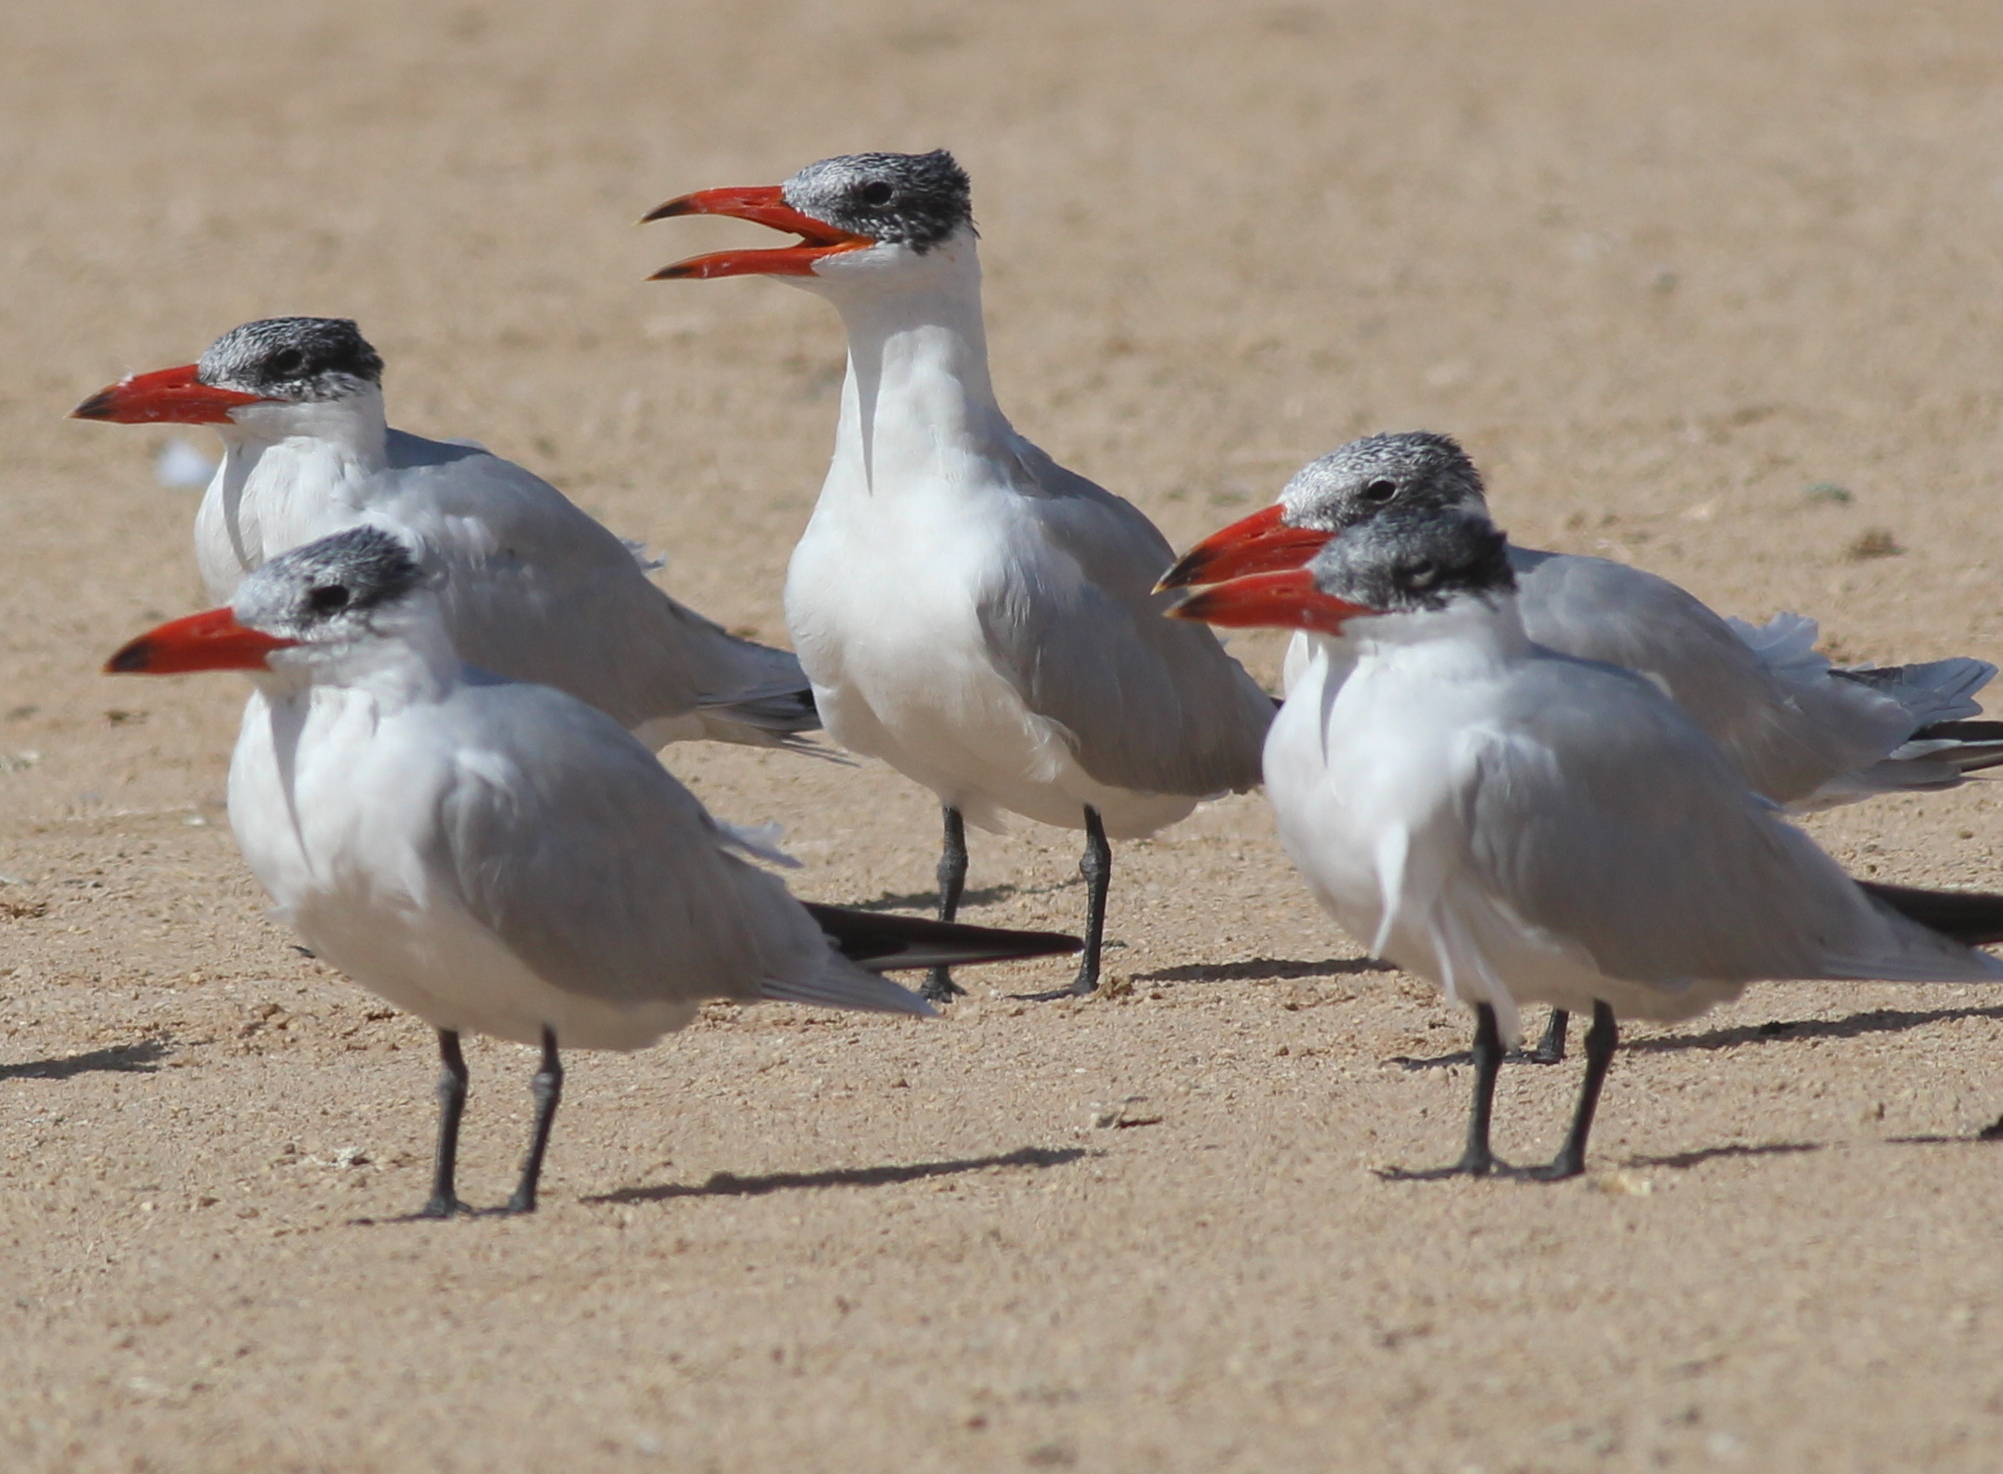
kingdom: Animalia
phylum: Chordata
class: Aves
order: Charadriiformes
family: Laridae
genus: Hydroprogne
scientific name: Hydroprogne caspia
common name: Caspian tern
